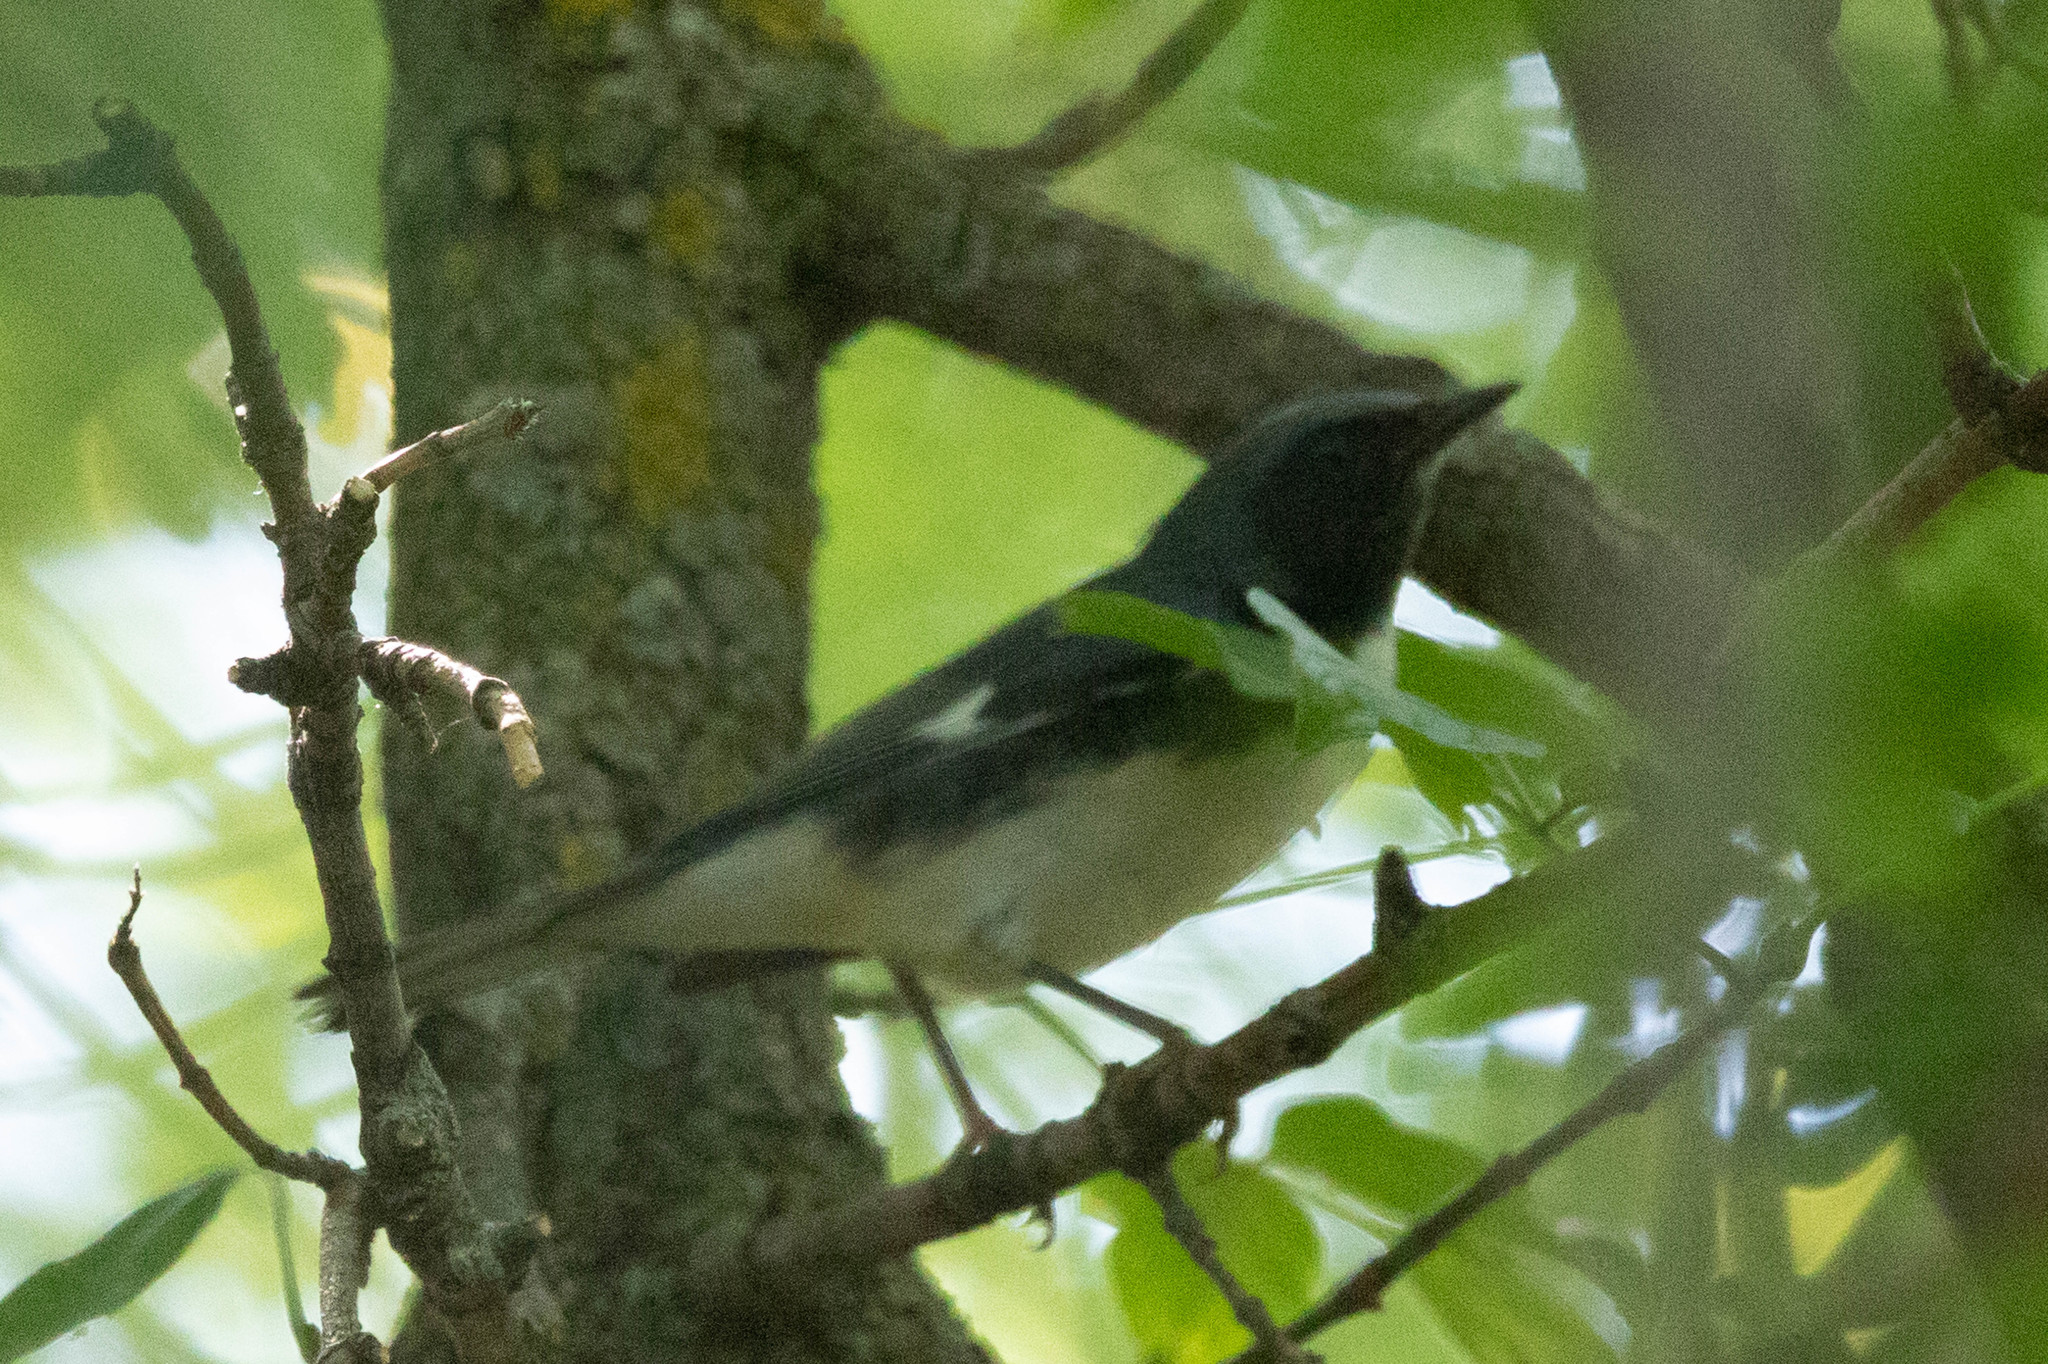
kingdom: Animalia
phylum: Chordata
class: Aves
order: Passeriformes
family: Parulidae
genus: Setophaga
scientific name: Setophaga caerulescens
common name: Black-throated blue warbler
